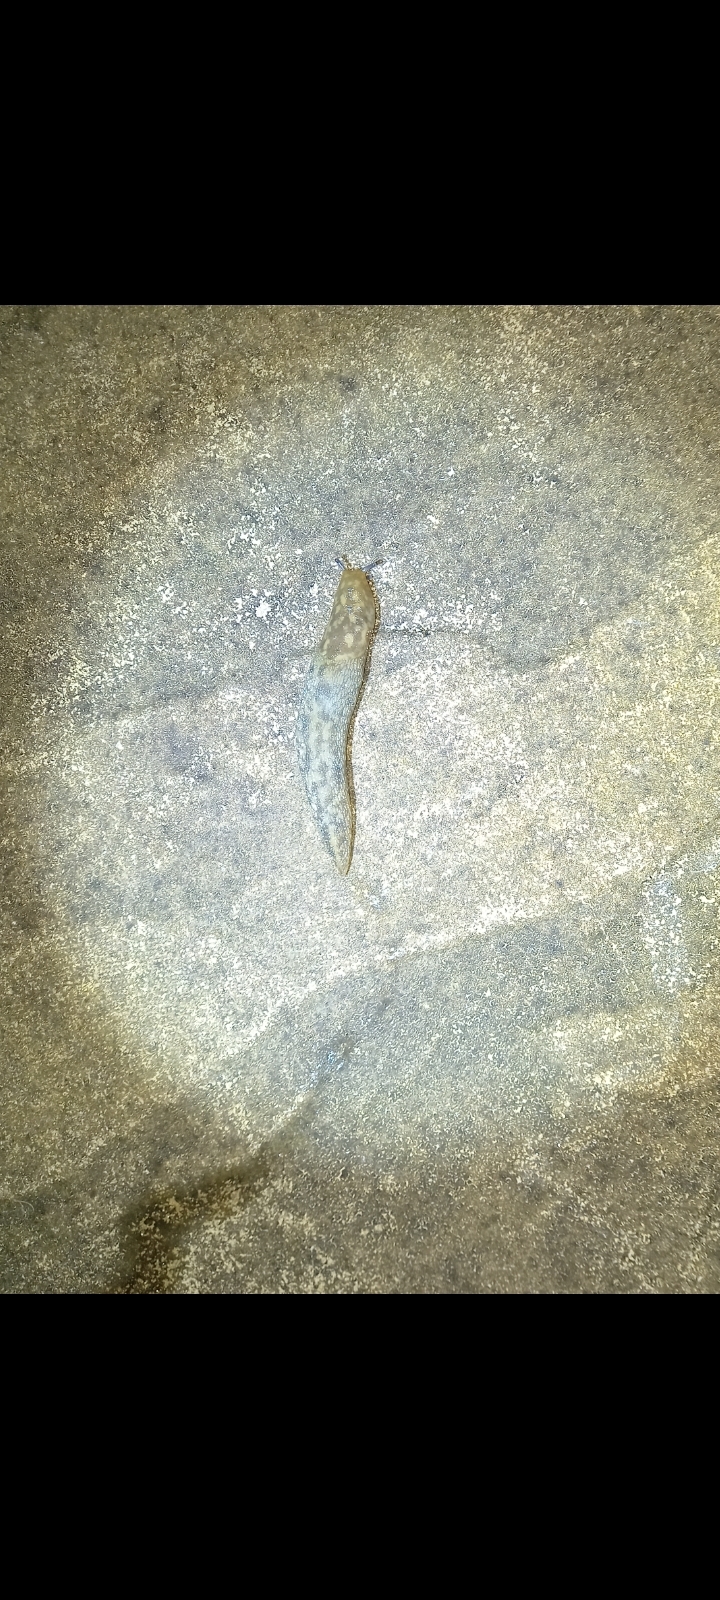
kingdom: Animalia
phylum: Mollusca
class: Gastropoda
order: Stylommatophora
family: Limacidae
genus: Limacus
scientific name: Limacus maculatus
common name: Irish yellow slug
